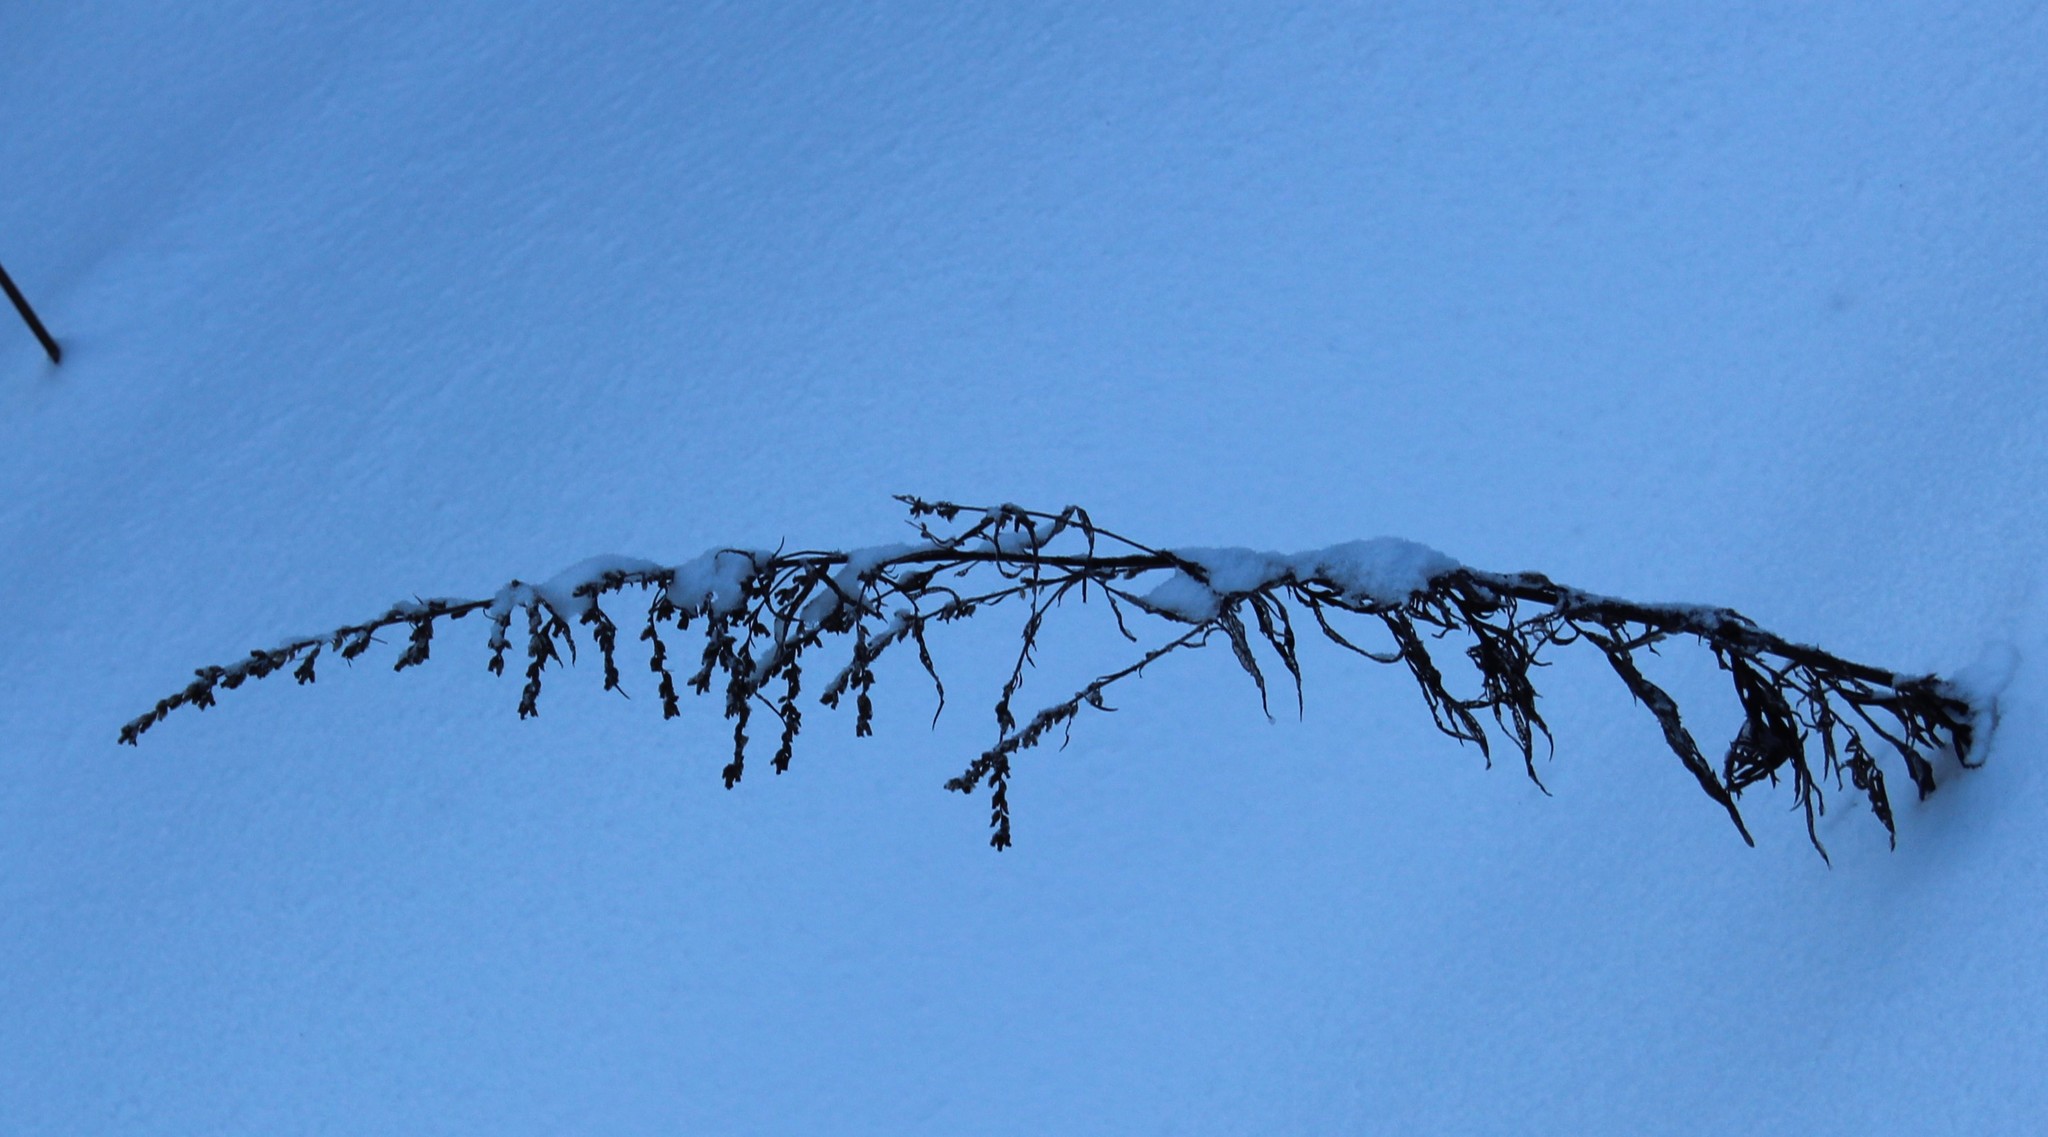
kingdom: Plantae
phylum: Tracheophyta
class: Magnoliopsida
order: Asterales
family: Asteraceae
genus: Artemisia
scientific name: Artemisia vulgaris
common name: Mugwort
